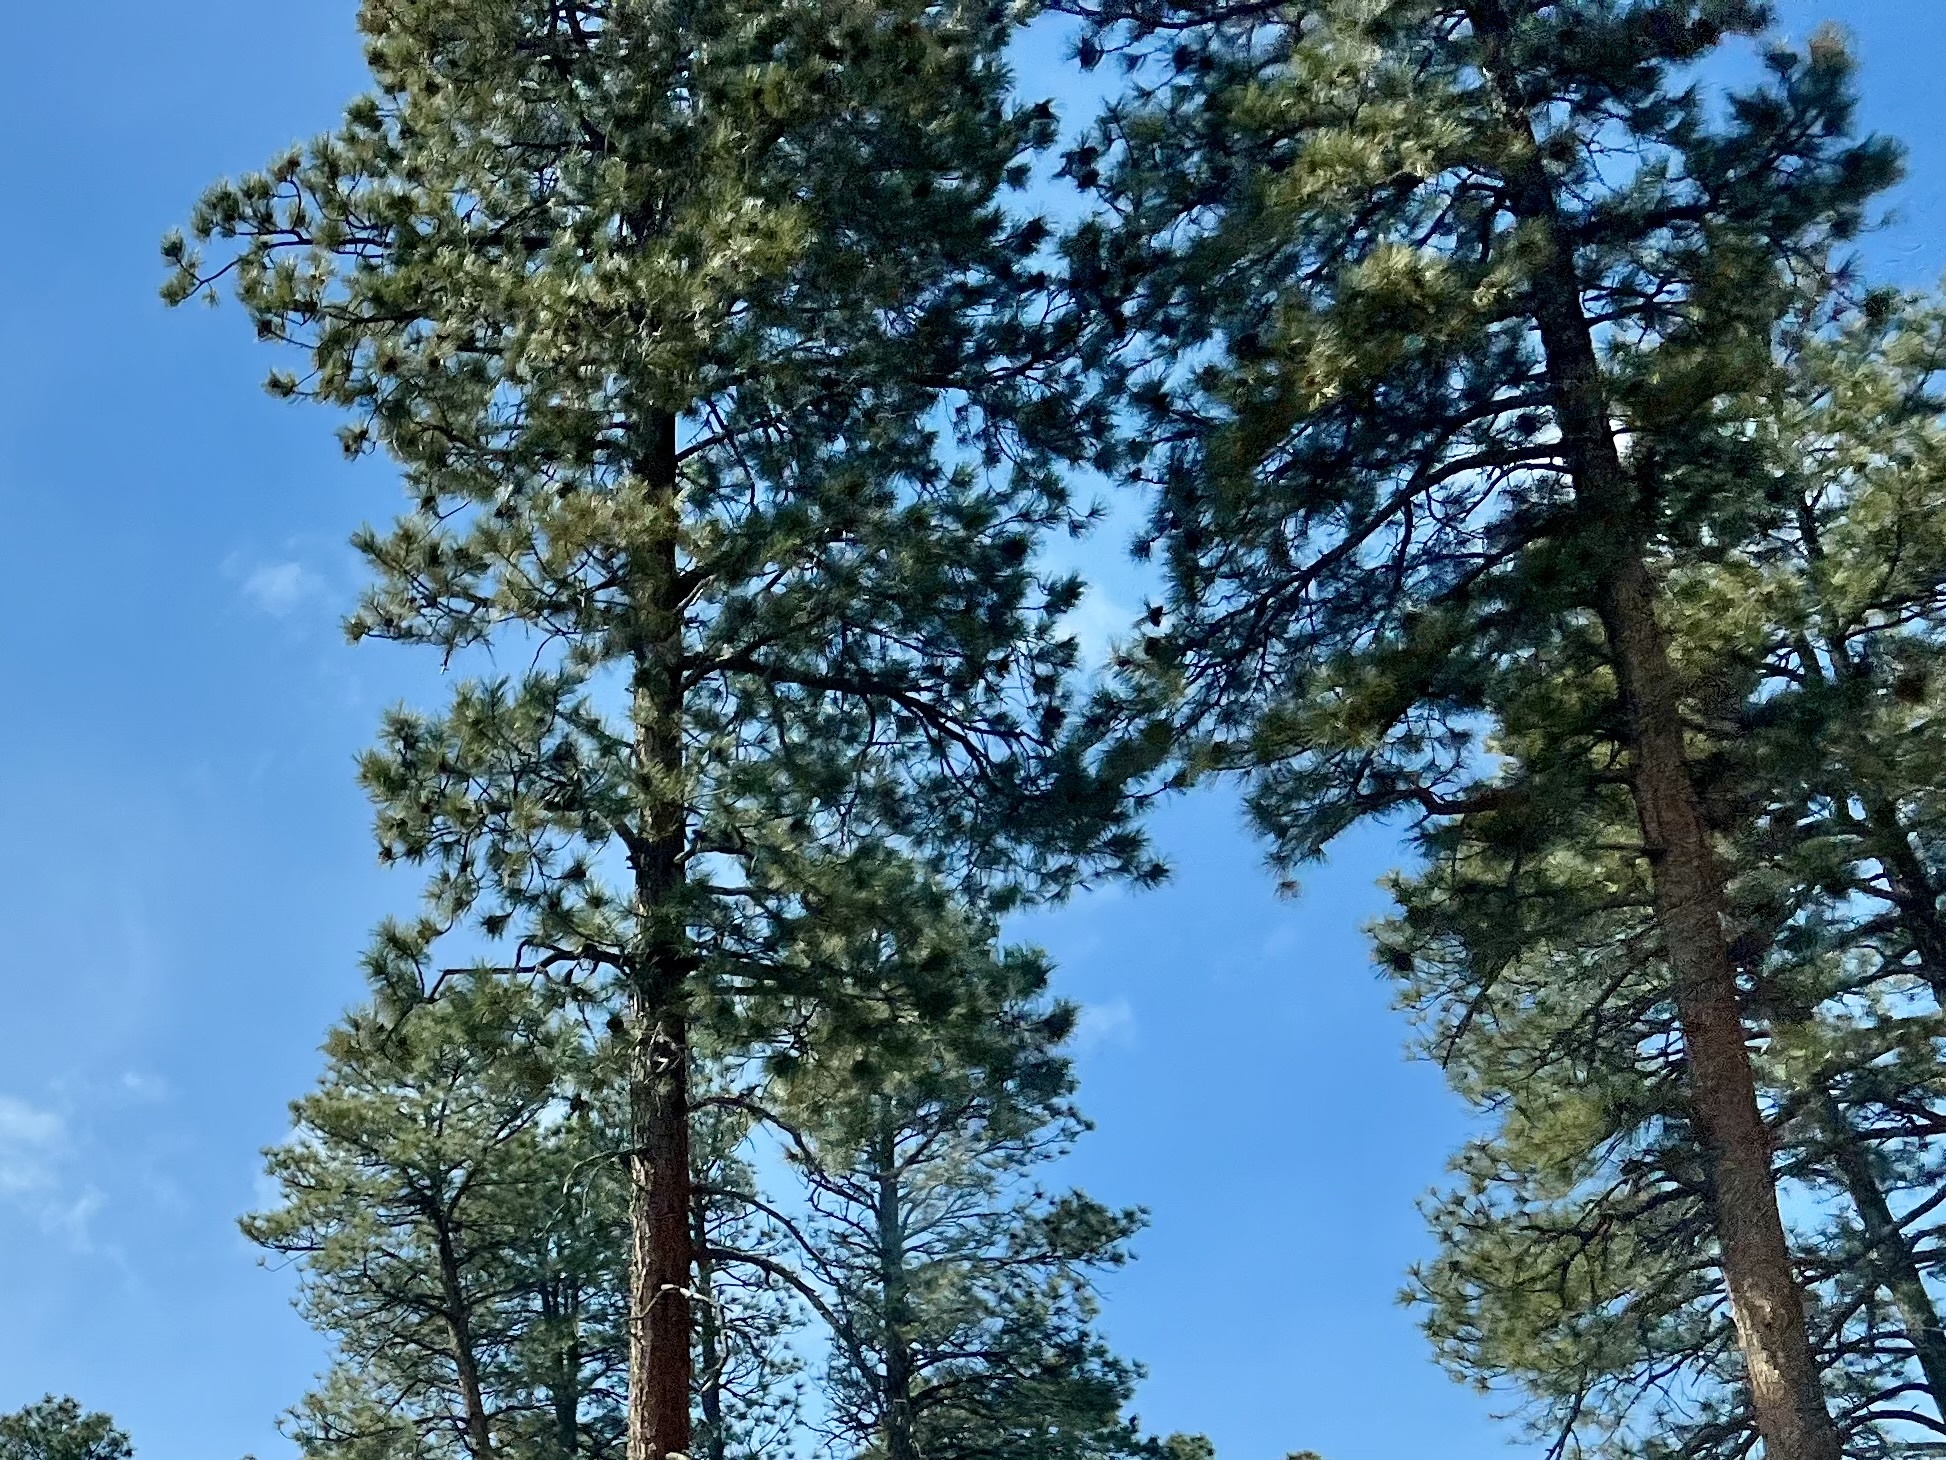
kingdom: Plantae
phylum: Tracheophyta
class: Pinopsida
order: Pinales
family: Pinaceae
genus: Pinus
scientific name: Pinus ponderosa
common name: Western yellow-pine
